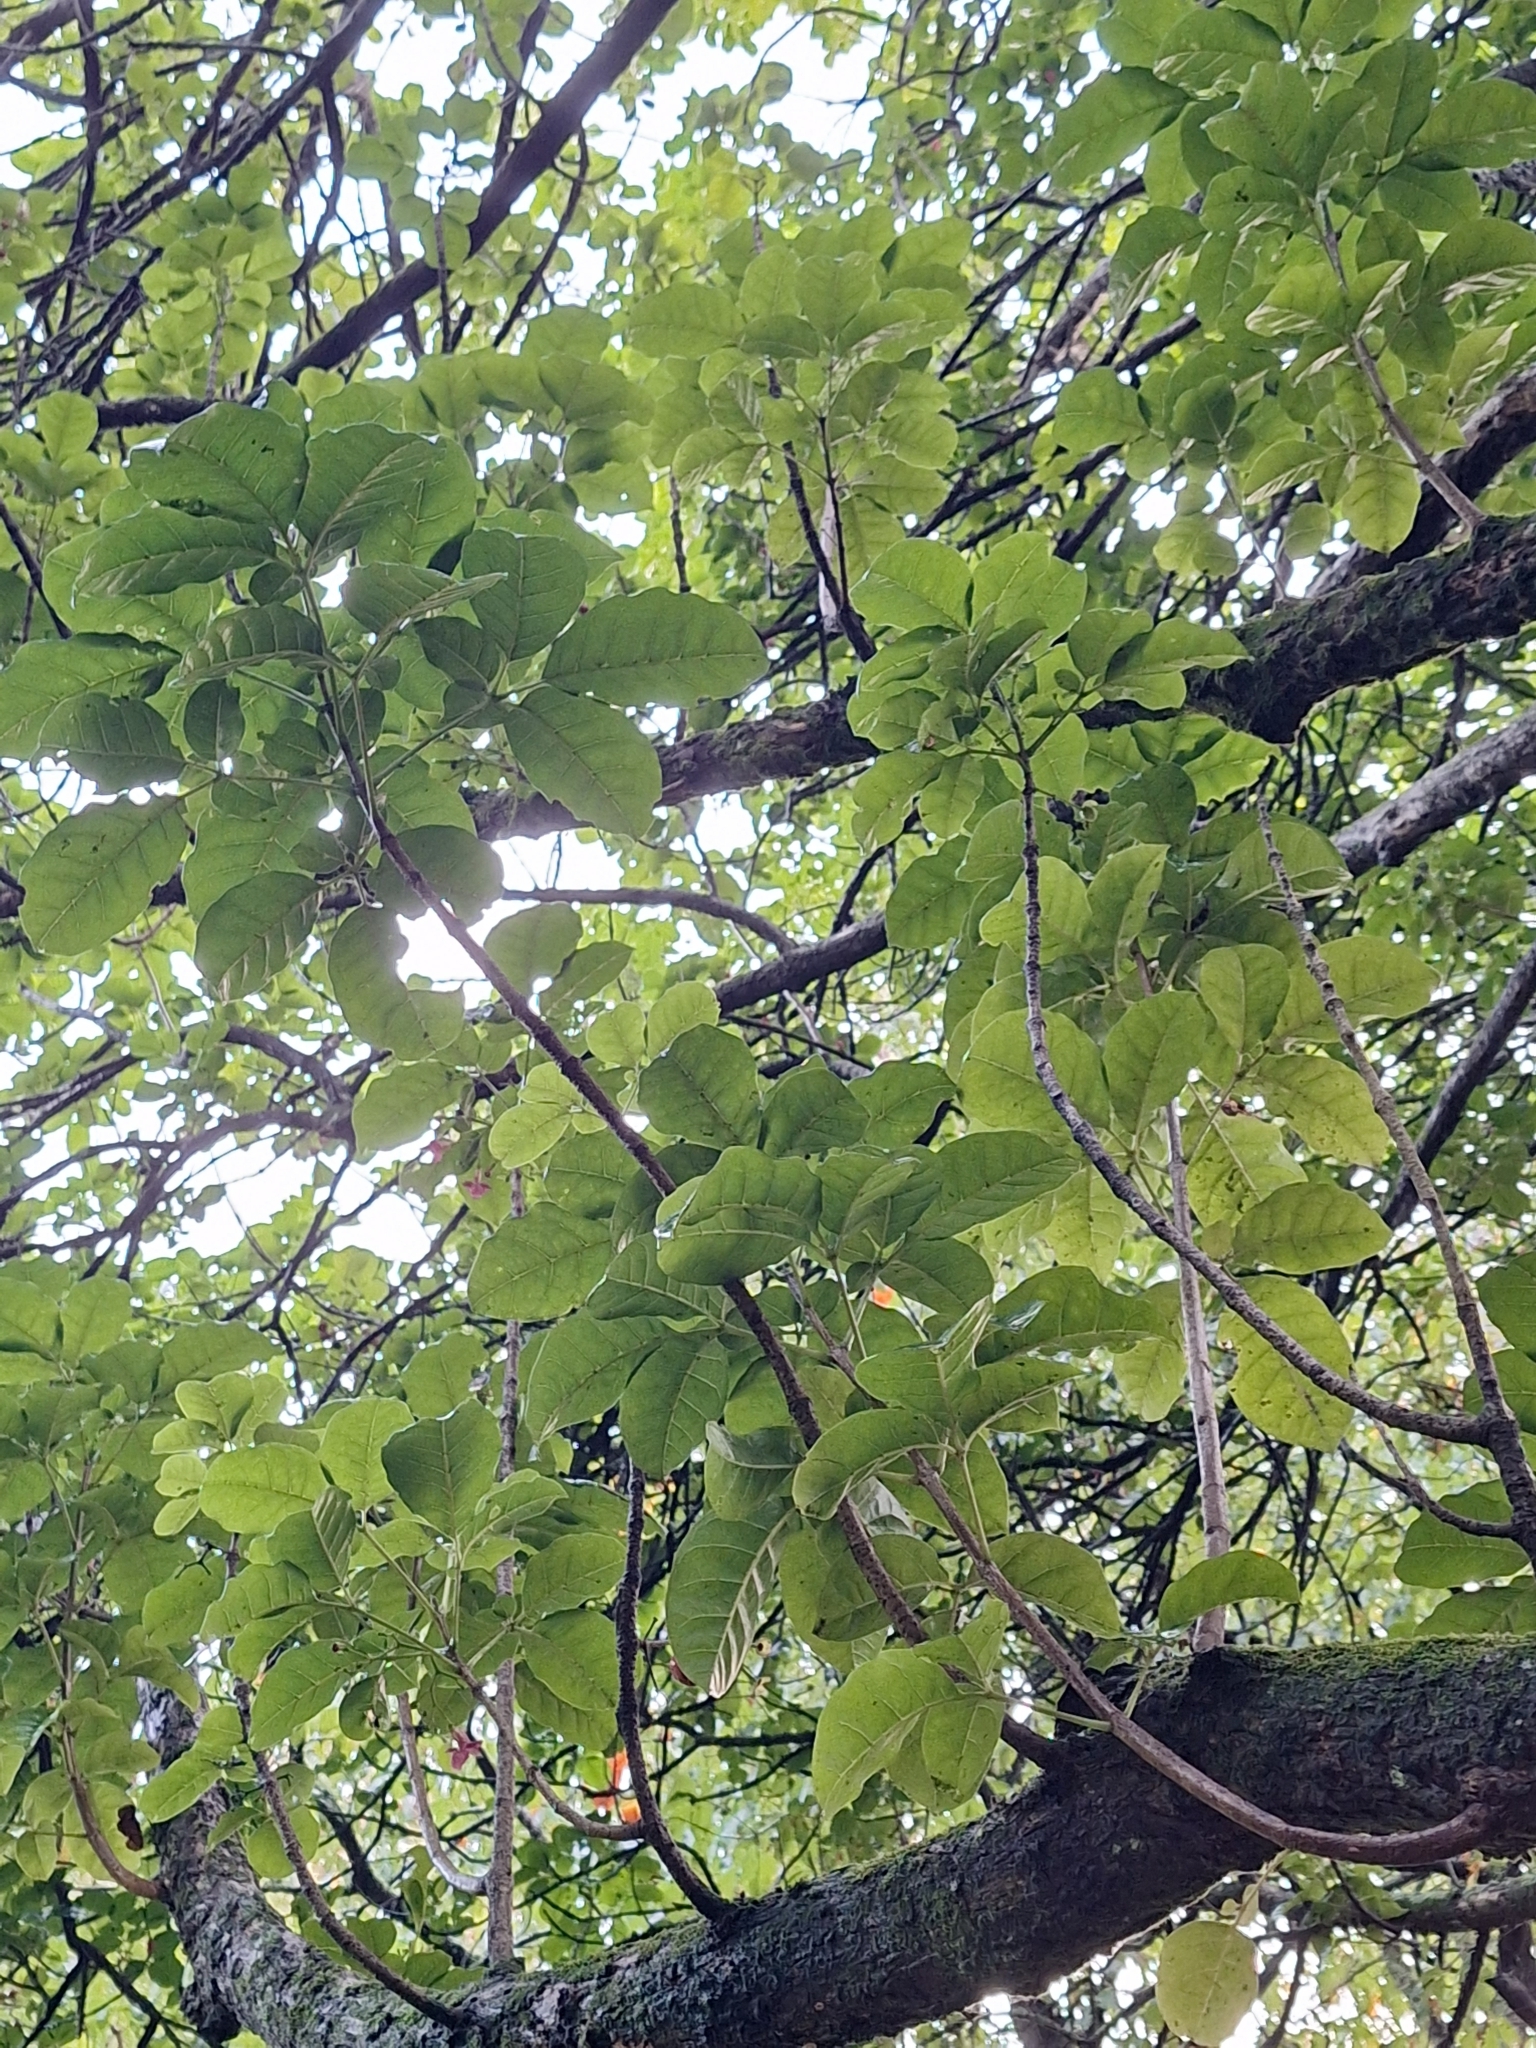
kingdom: Plantae
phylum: Tracheophyta
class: Magnoliopsida
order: Lamiales
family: Lamiaceae
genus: Vitex
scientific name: Vitex lucens
